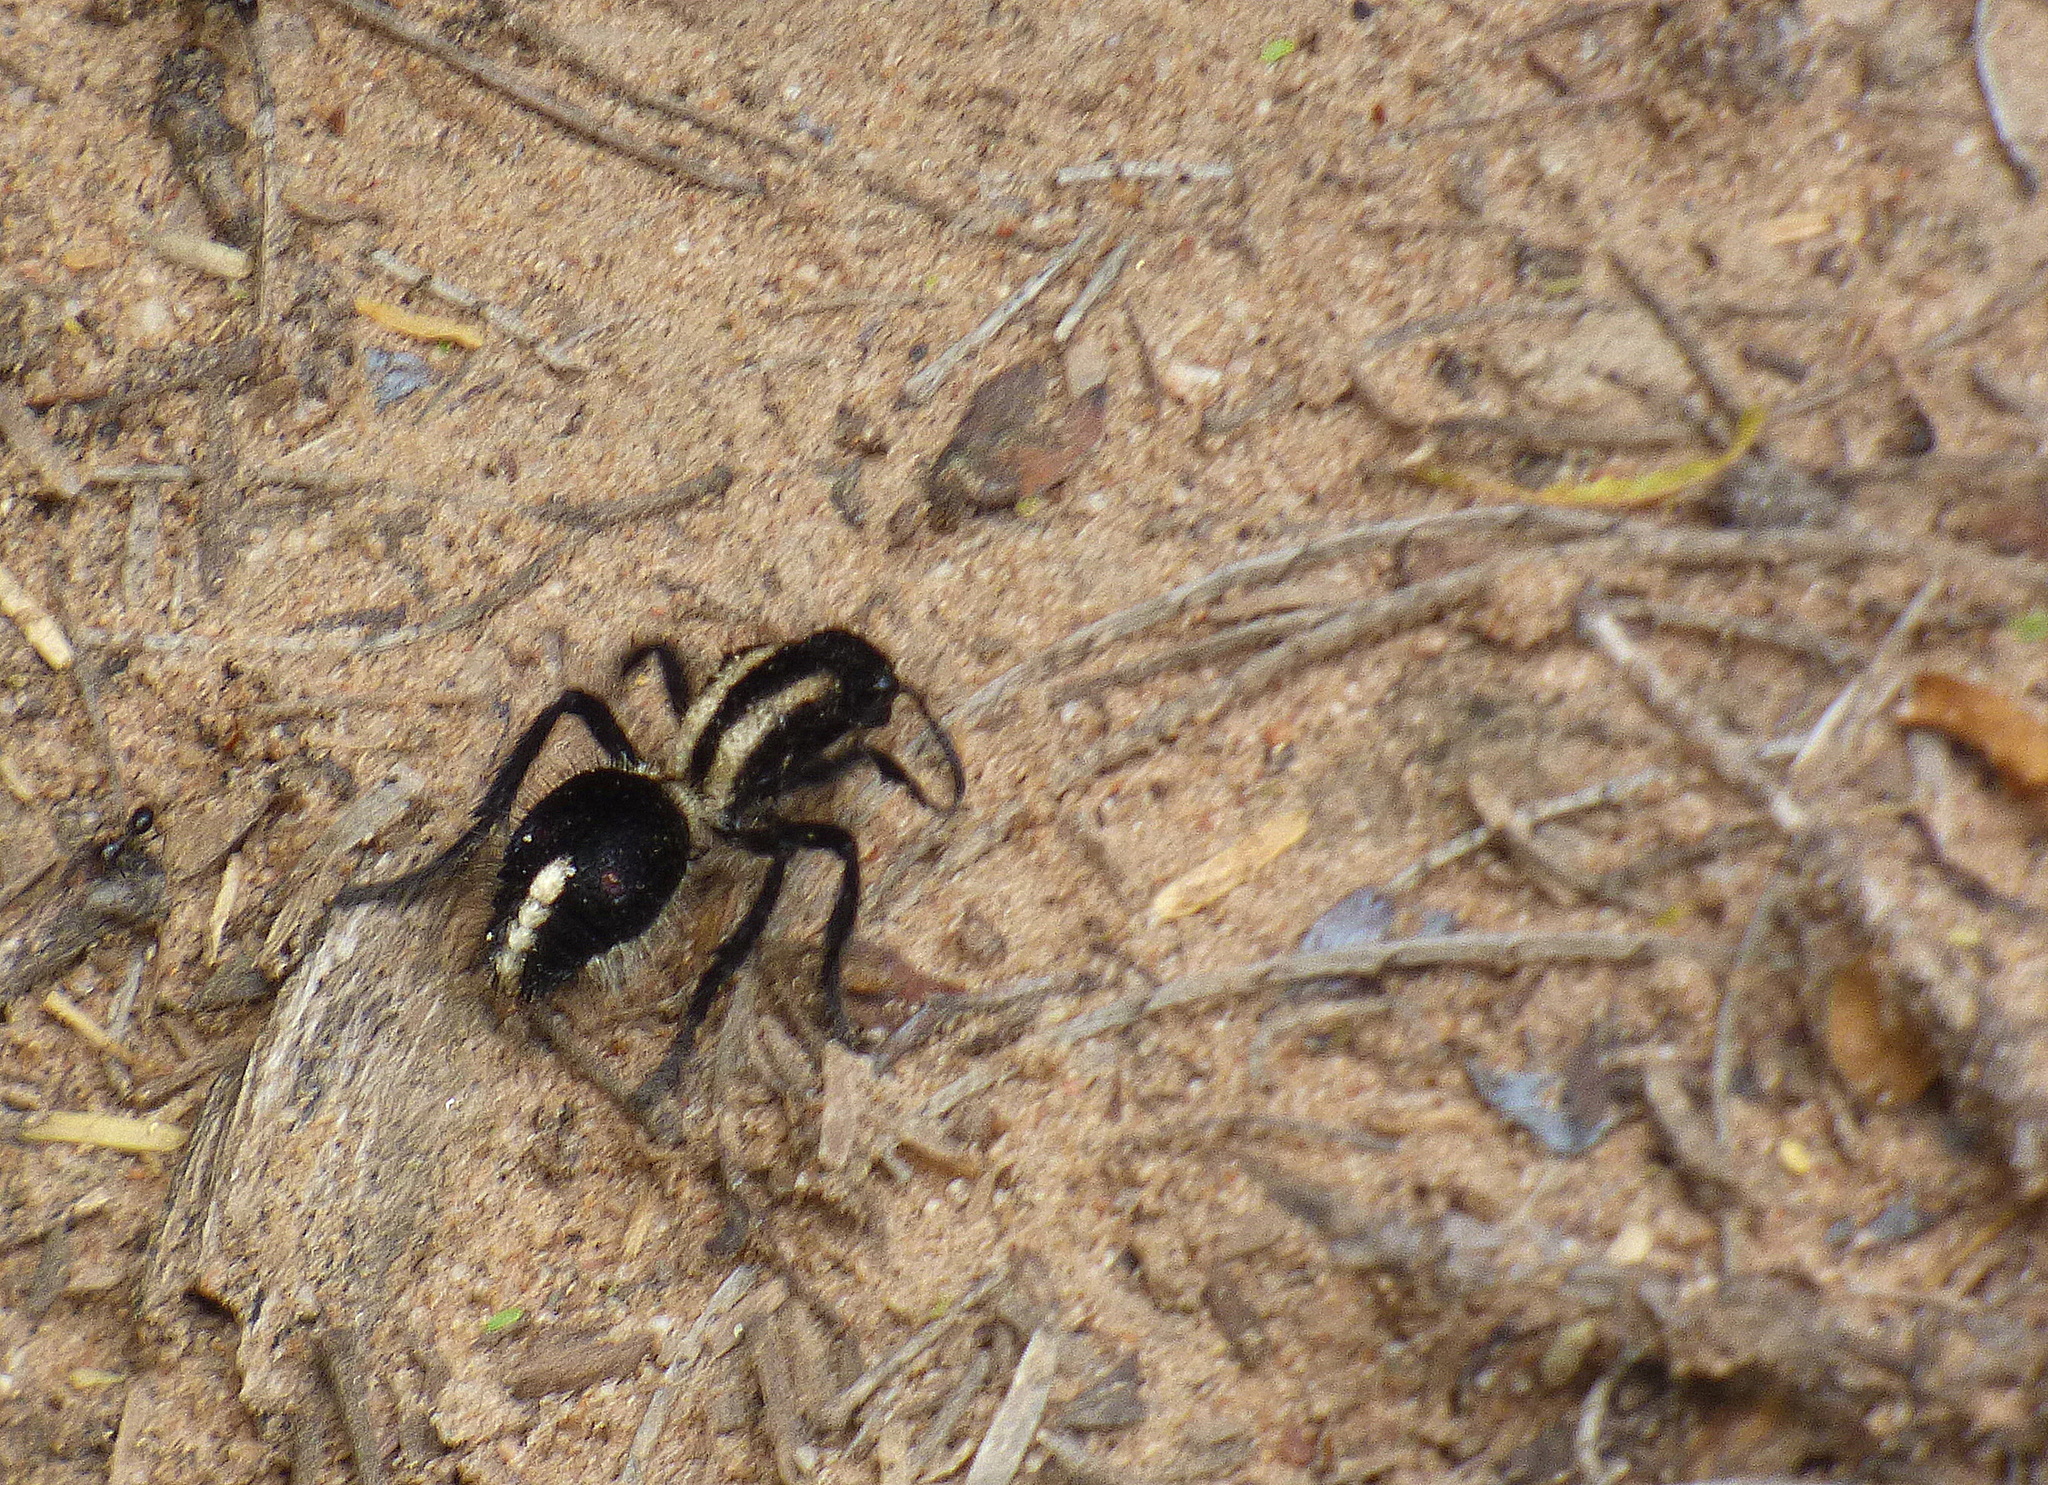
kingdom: Animalia
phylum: Arthropoda
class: Insecta
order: Hymenoptera
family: Mutillidae
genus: Traumatomutilla
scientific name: Traumatomutilla
